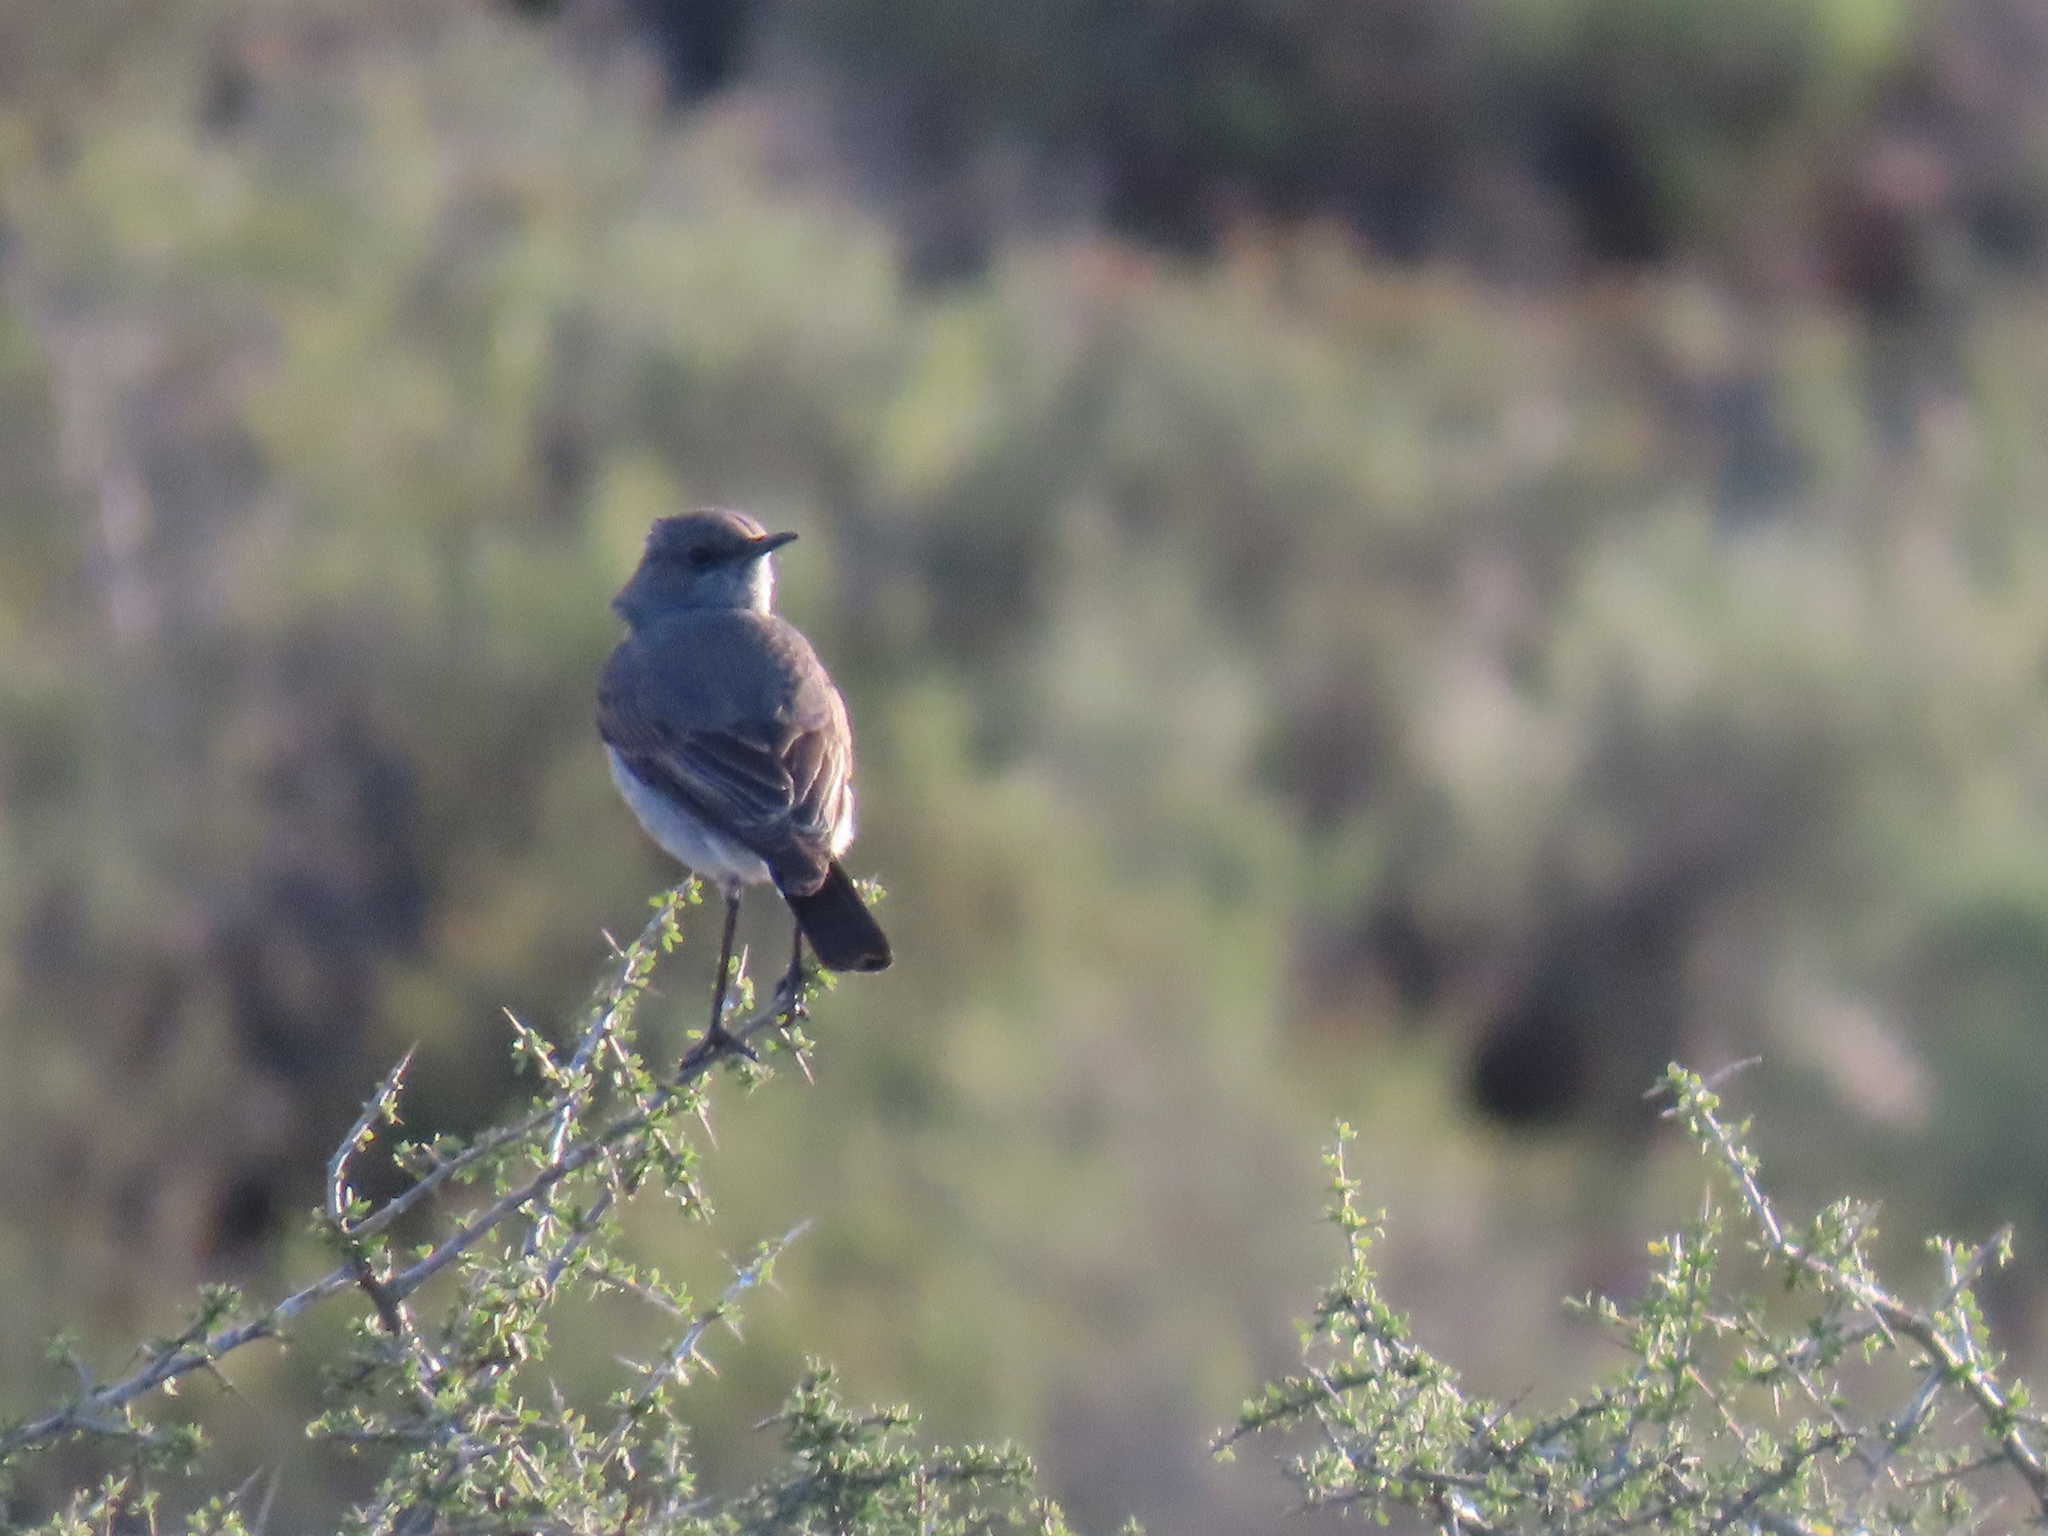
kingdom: Animalia
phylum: Chordata
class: Aves
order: Passeriformes
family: Muscicapidae
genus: Emarginata
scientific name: Emarginata schlegelii
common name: Karoo chat
